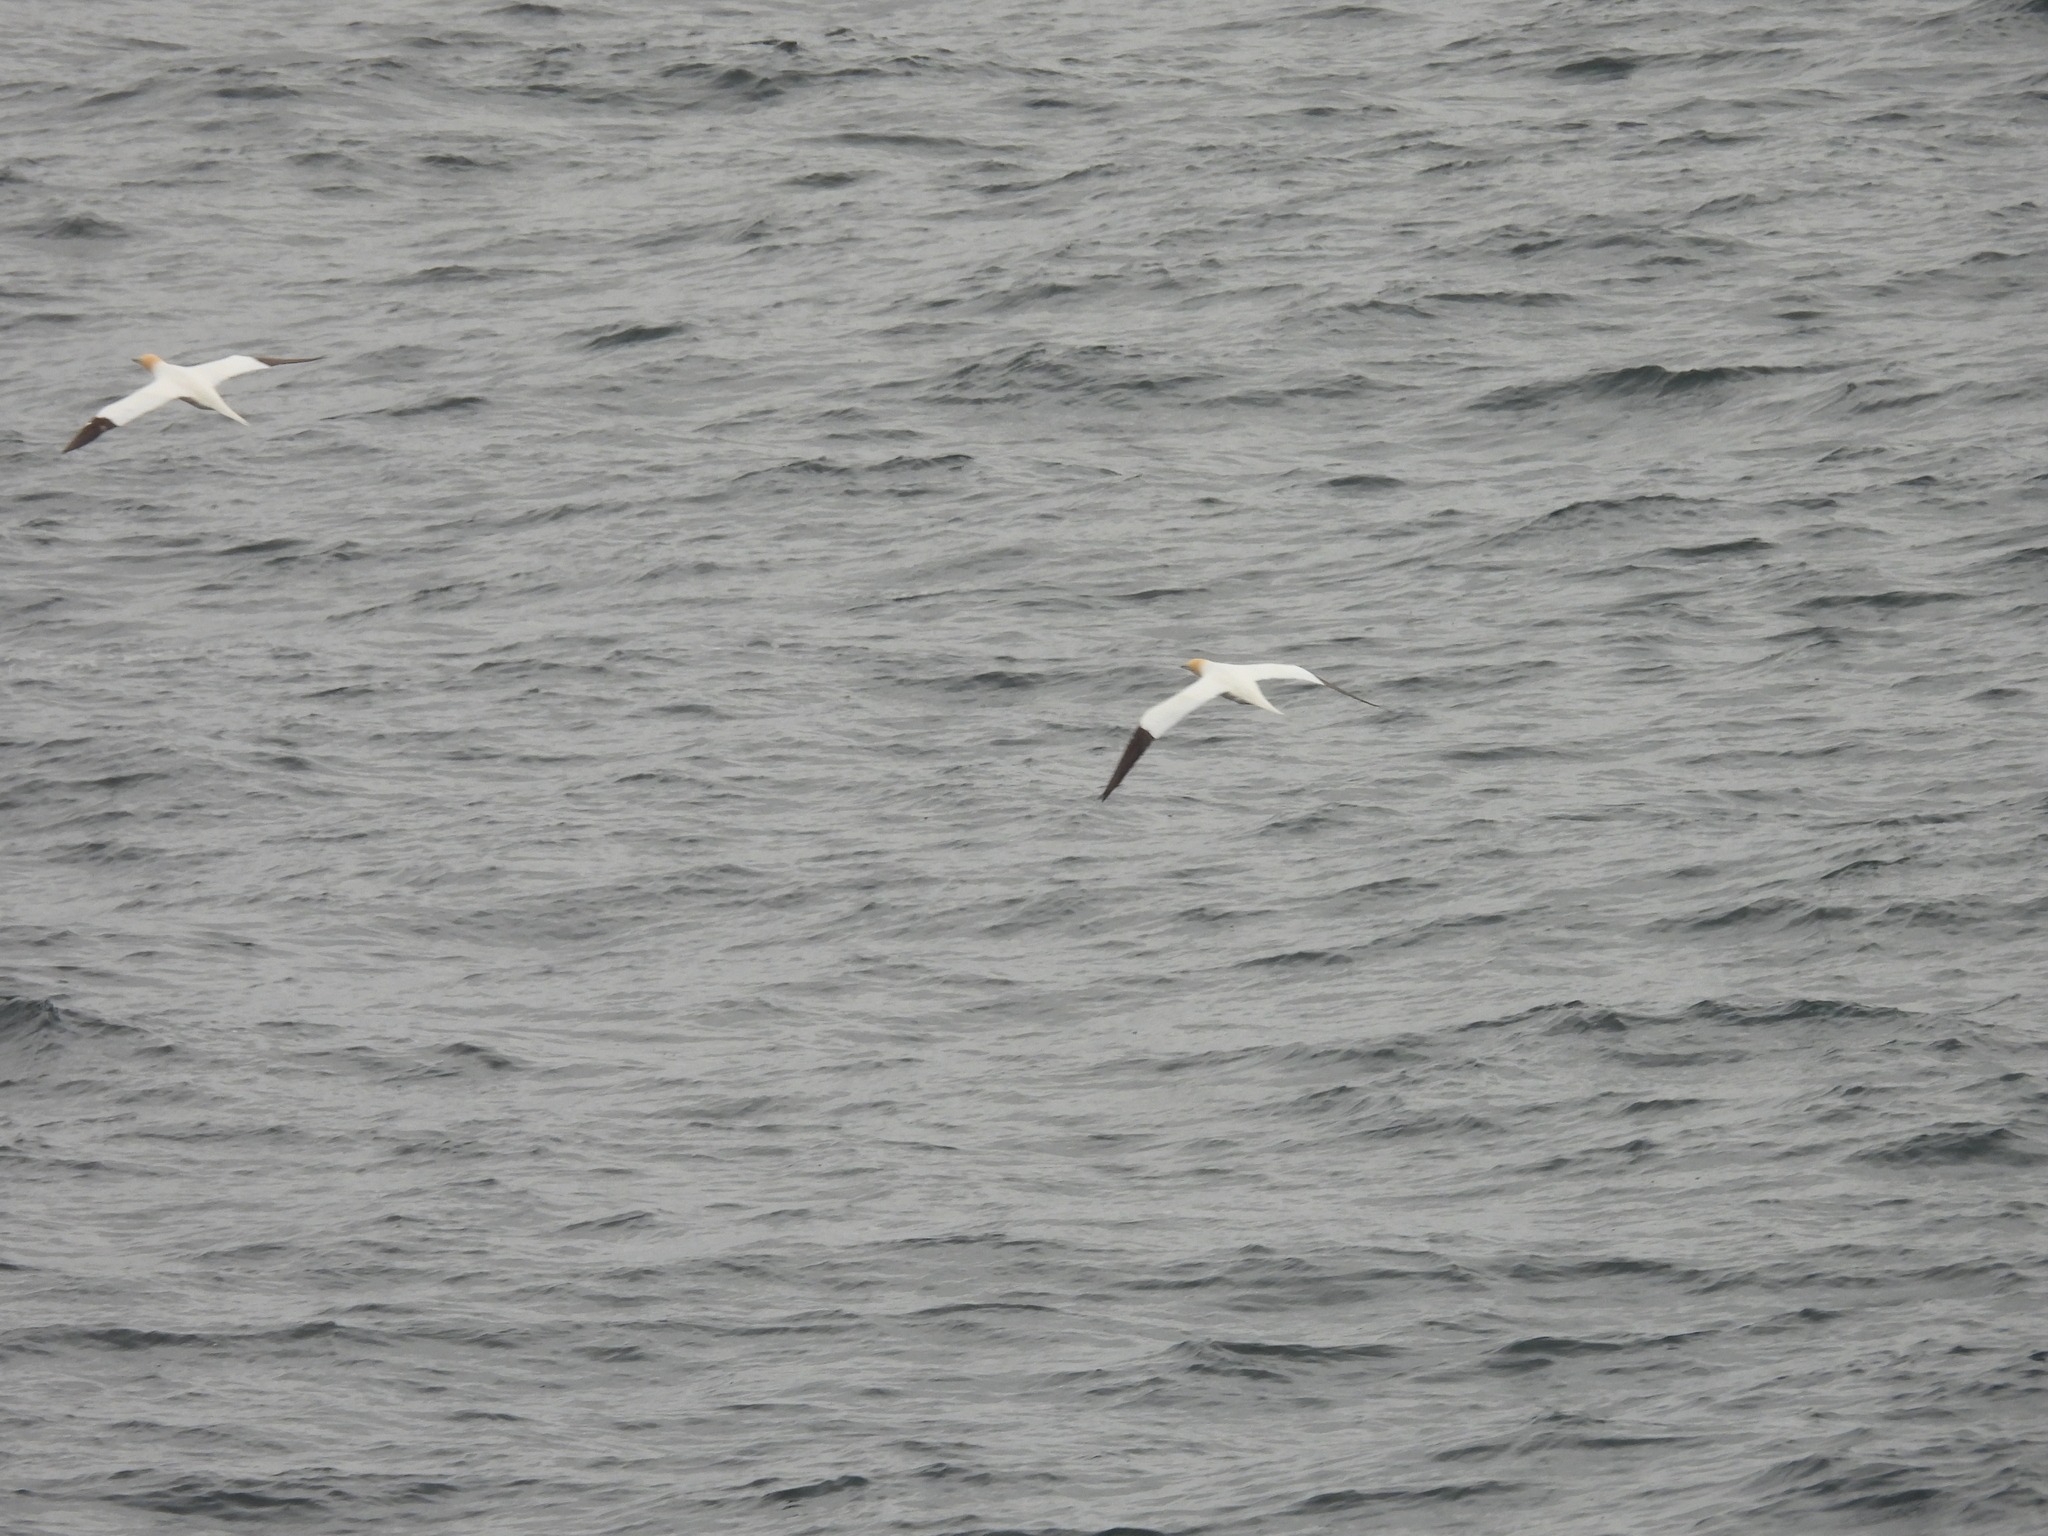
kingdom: Animalia
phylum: Chordata
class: Aves
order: Suliformes
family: Sulidae
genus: Morus
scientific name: Morus bassanus
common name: Northern gannet
